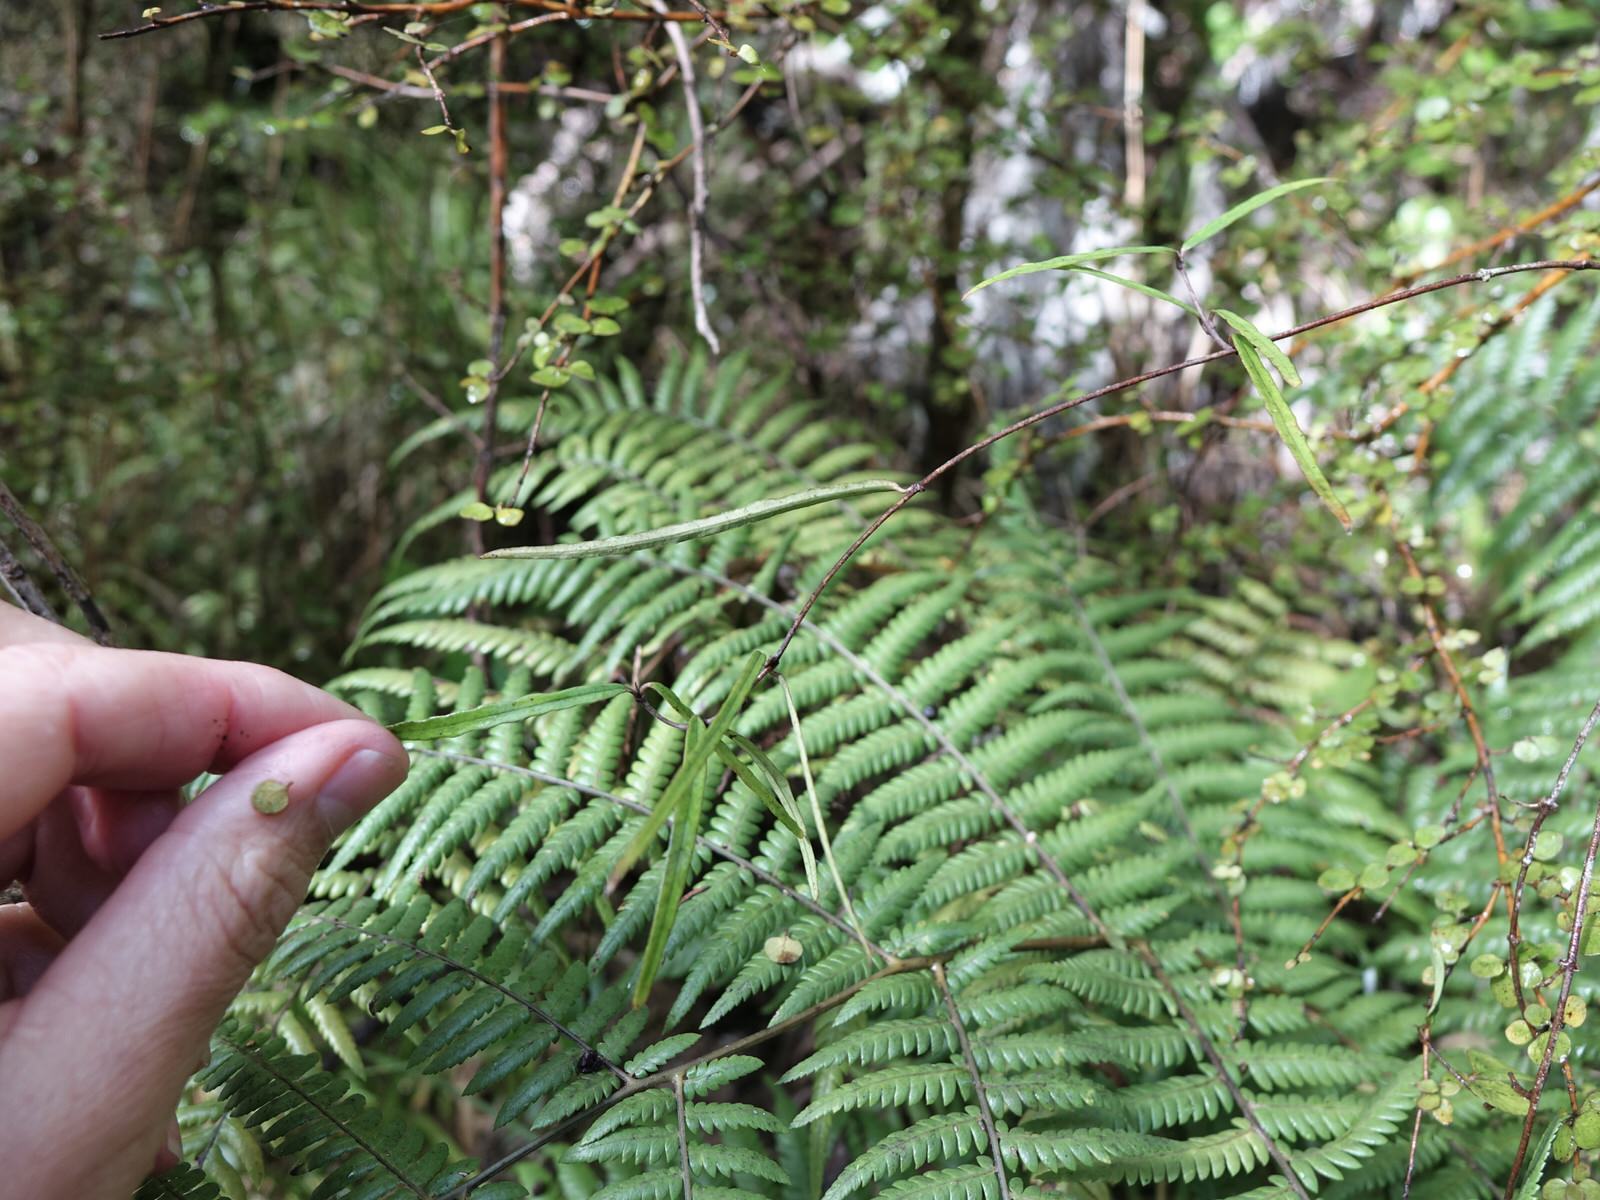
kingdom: Plantae
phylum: Tracheophyta
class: Magnoliopsida
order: Gentianales
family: Apocynaceae
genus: Parsonsia
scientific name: Parsonsia capsularis
